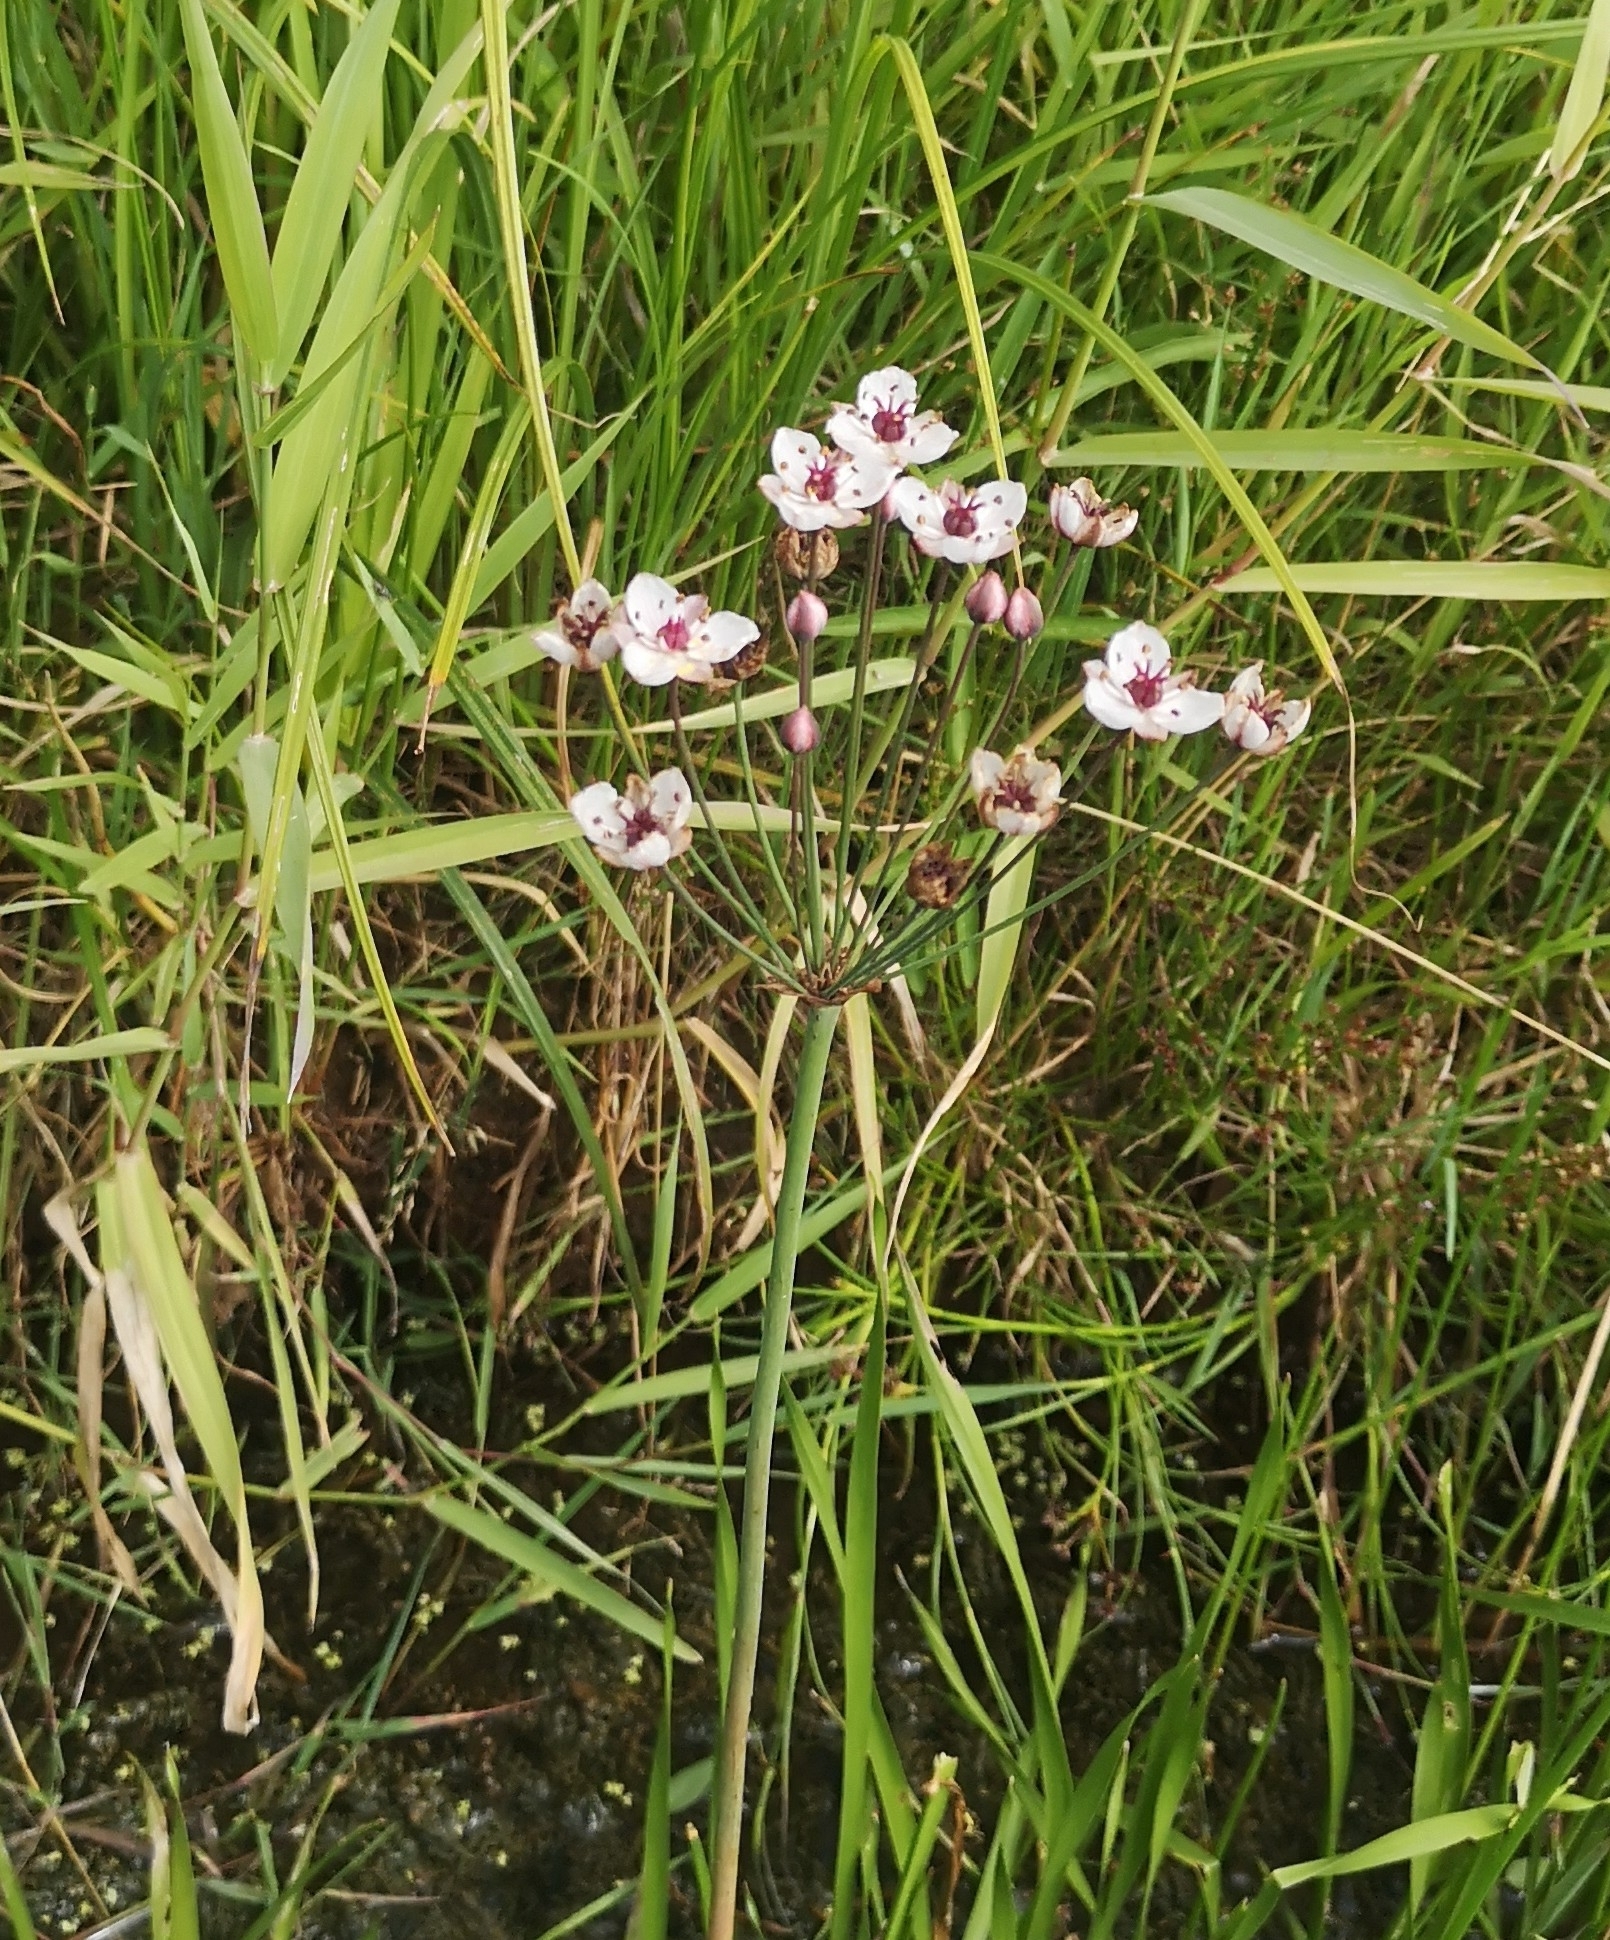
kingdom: Plantae
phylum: Tracheophyta
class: Liliopsida
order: Alismatales
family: Butomaceae
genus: Butomus
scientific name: Butomus umbellatus
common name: Flowering-rush
